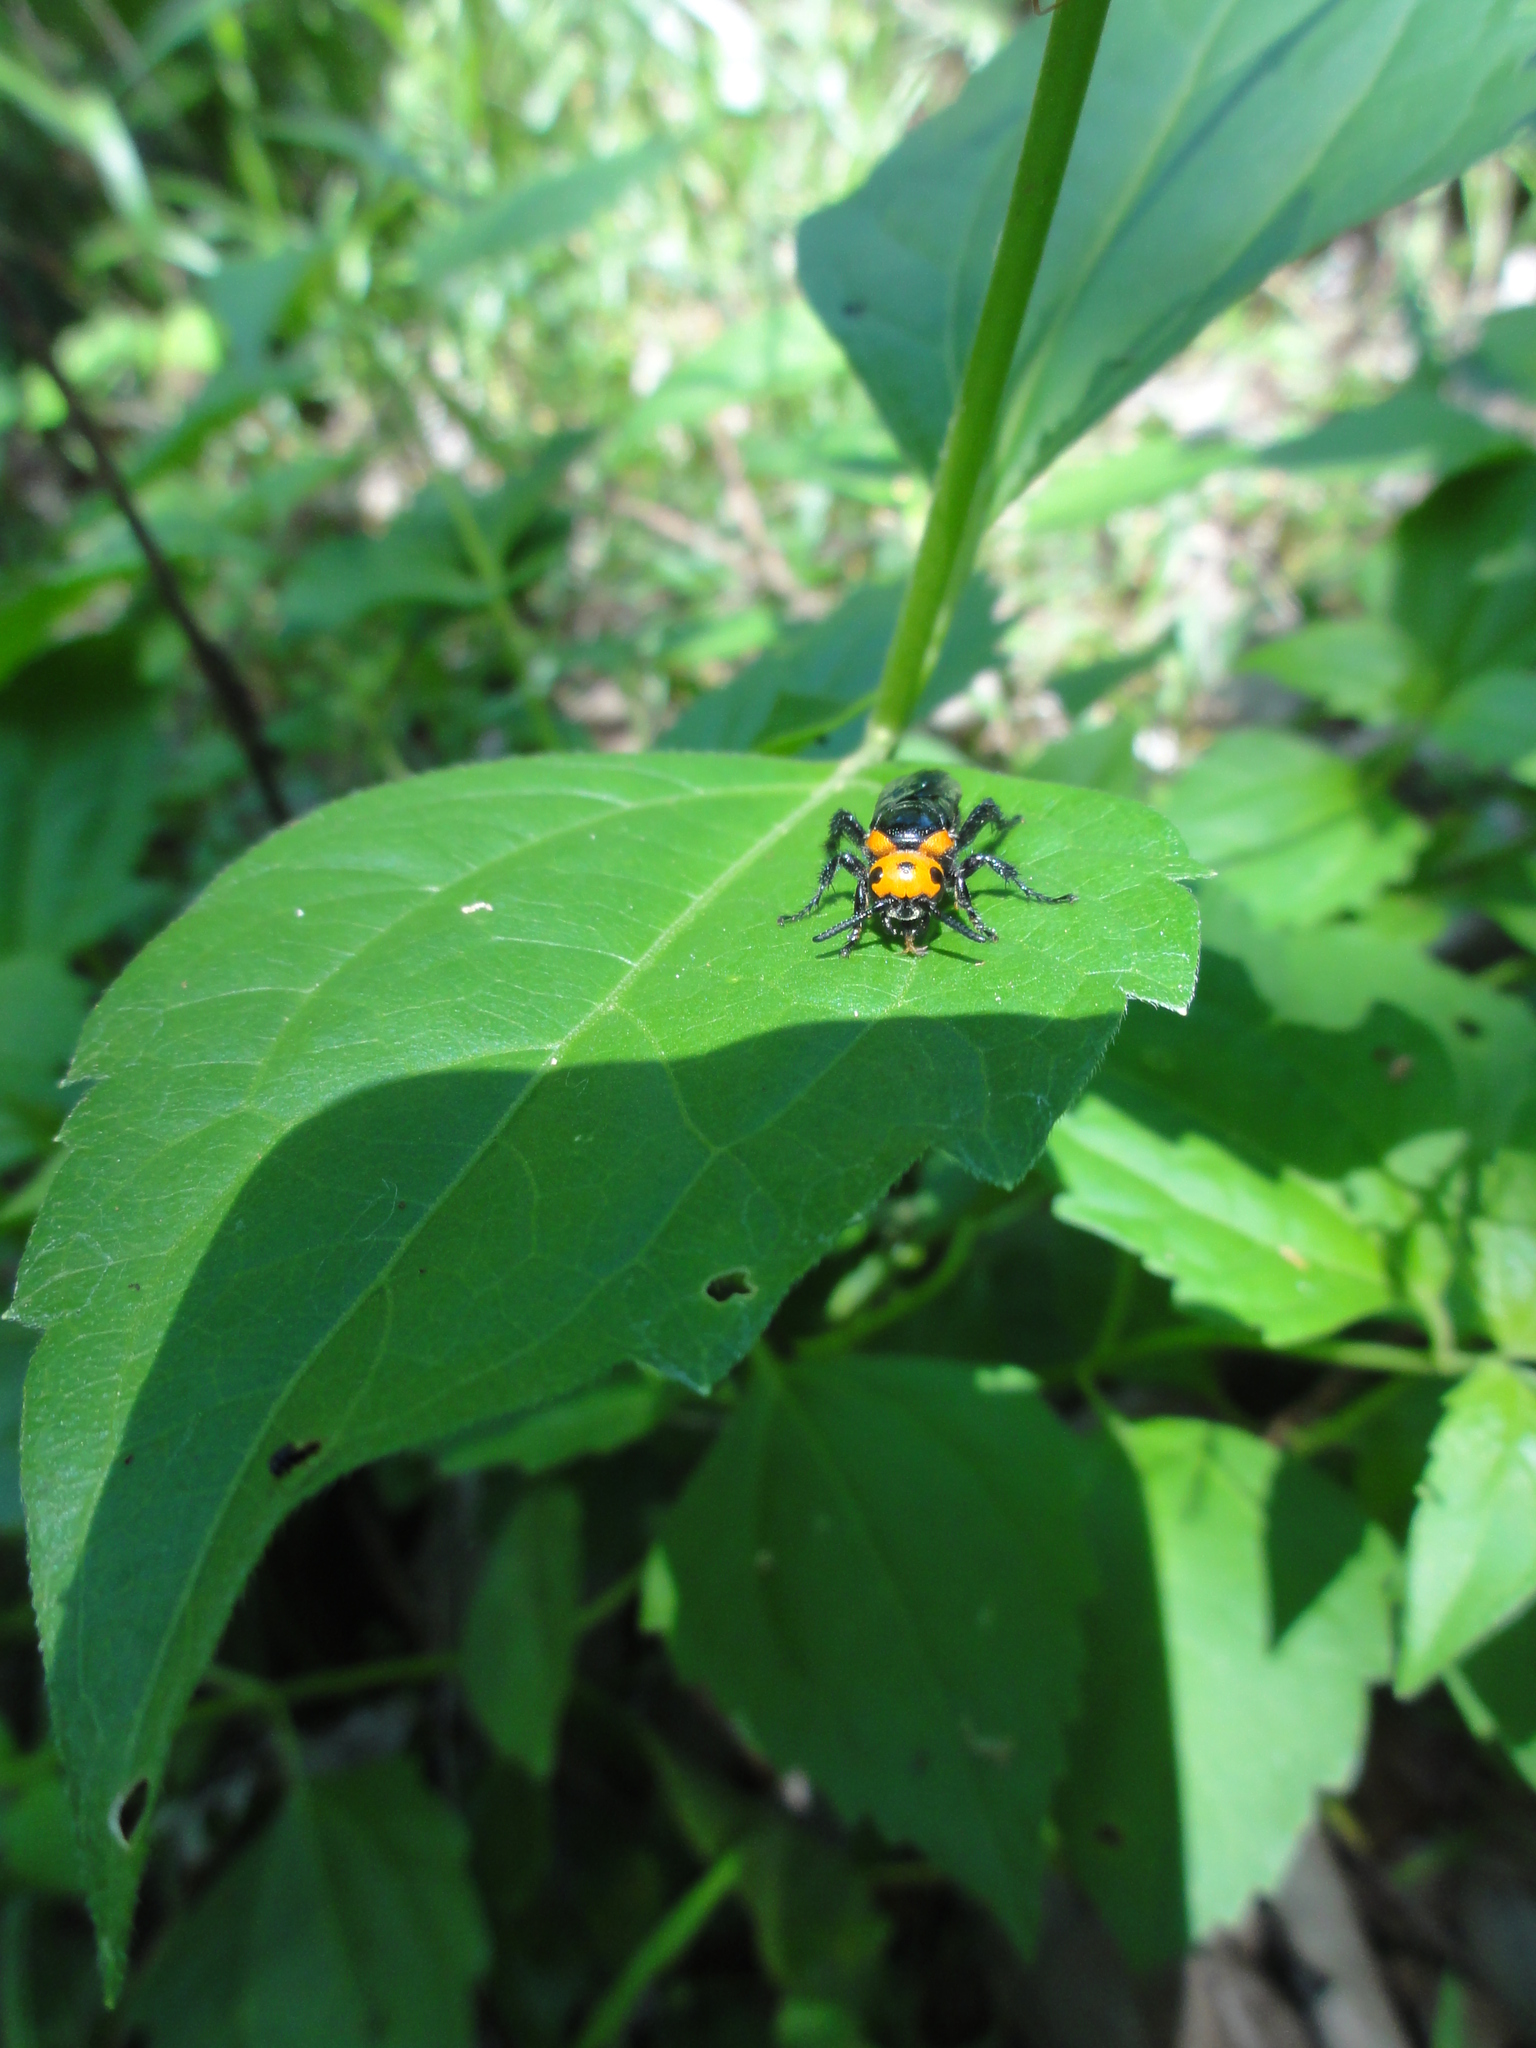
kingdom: Animalia
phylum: Arthropoda
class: Insecta
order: Hymenoptera
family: Scoliidae
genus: Scolia
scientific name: Scolia binotata
